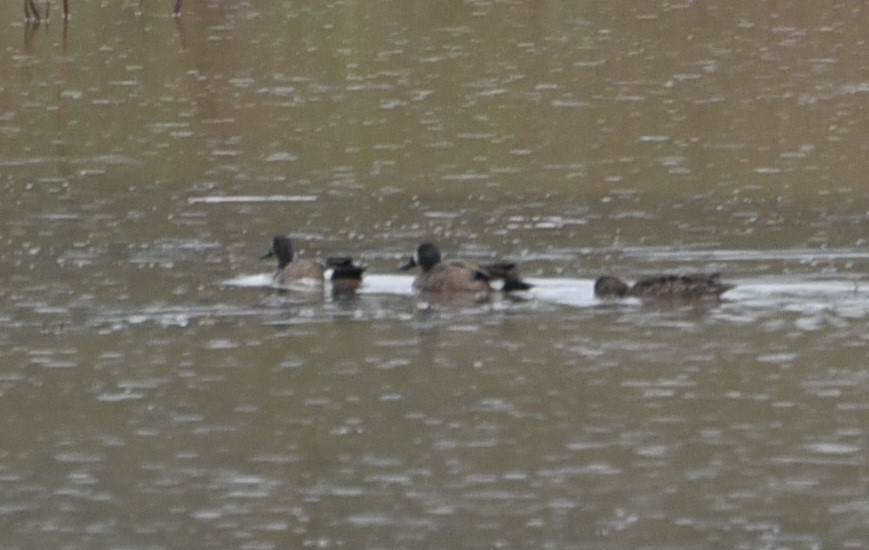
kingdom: Animalia
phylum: Chordata
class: Aves
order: Anseriformes
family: Anatidae
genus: Spatula
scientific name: Spatula discors
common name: Blue-winged teal
